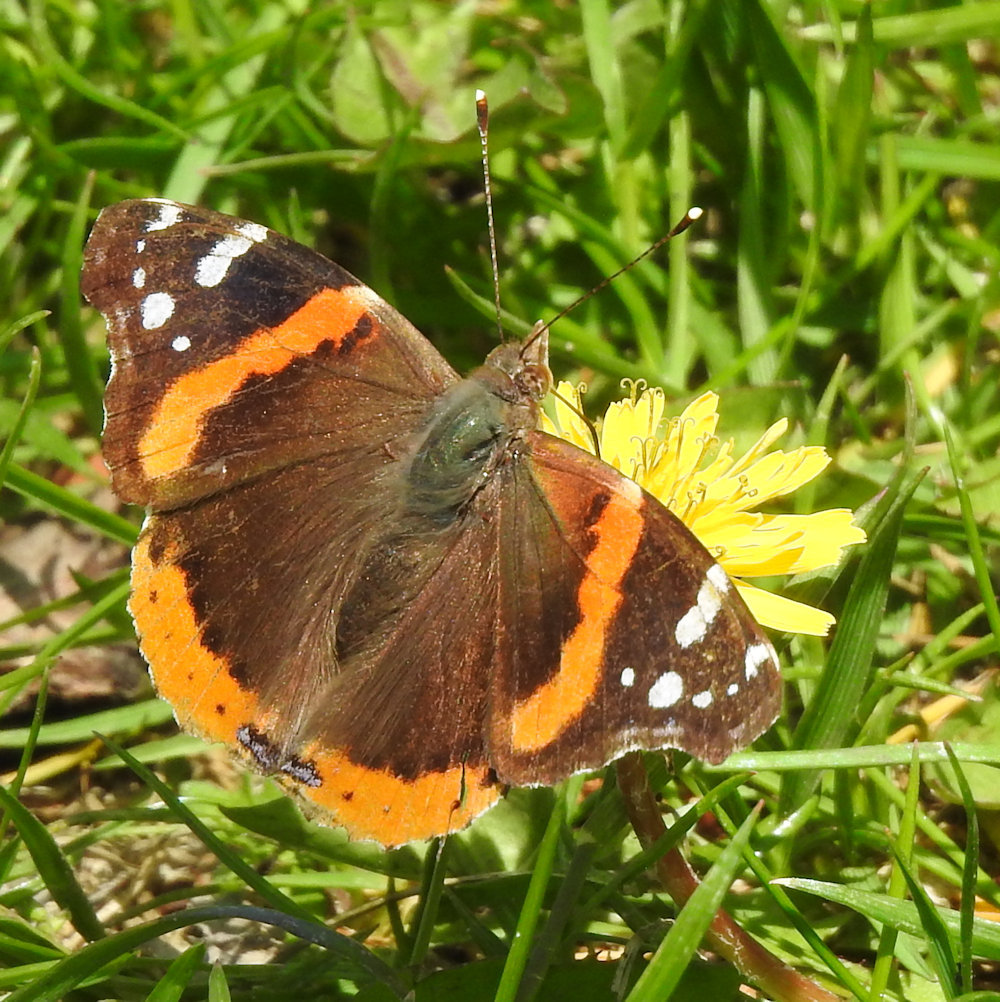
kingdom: Animalia
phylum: Arthropoda
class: Insecta
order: Lepidoptera
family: Nymphalidae
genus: Vanessa
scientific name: Vanessa atalanta
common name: Red admiral
